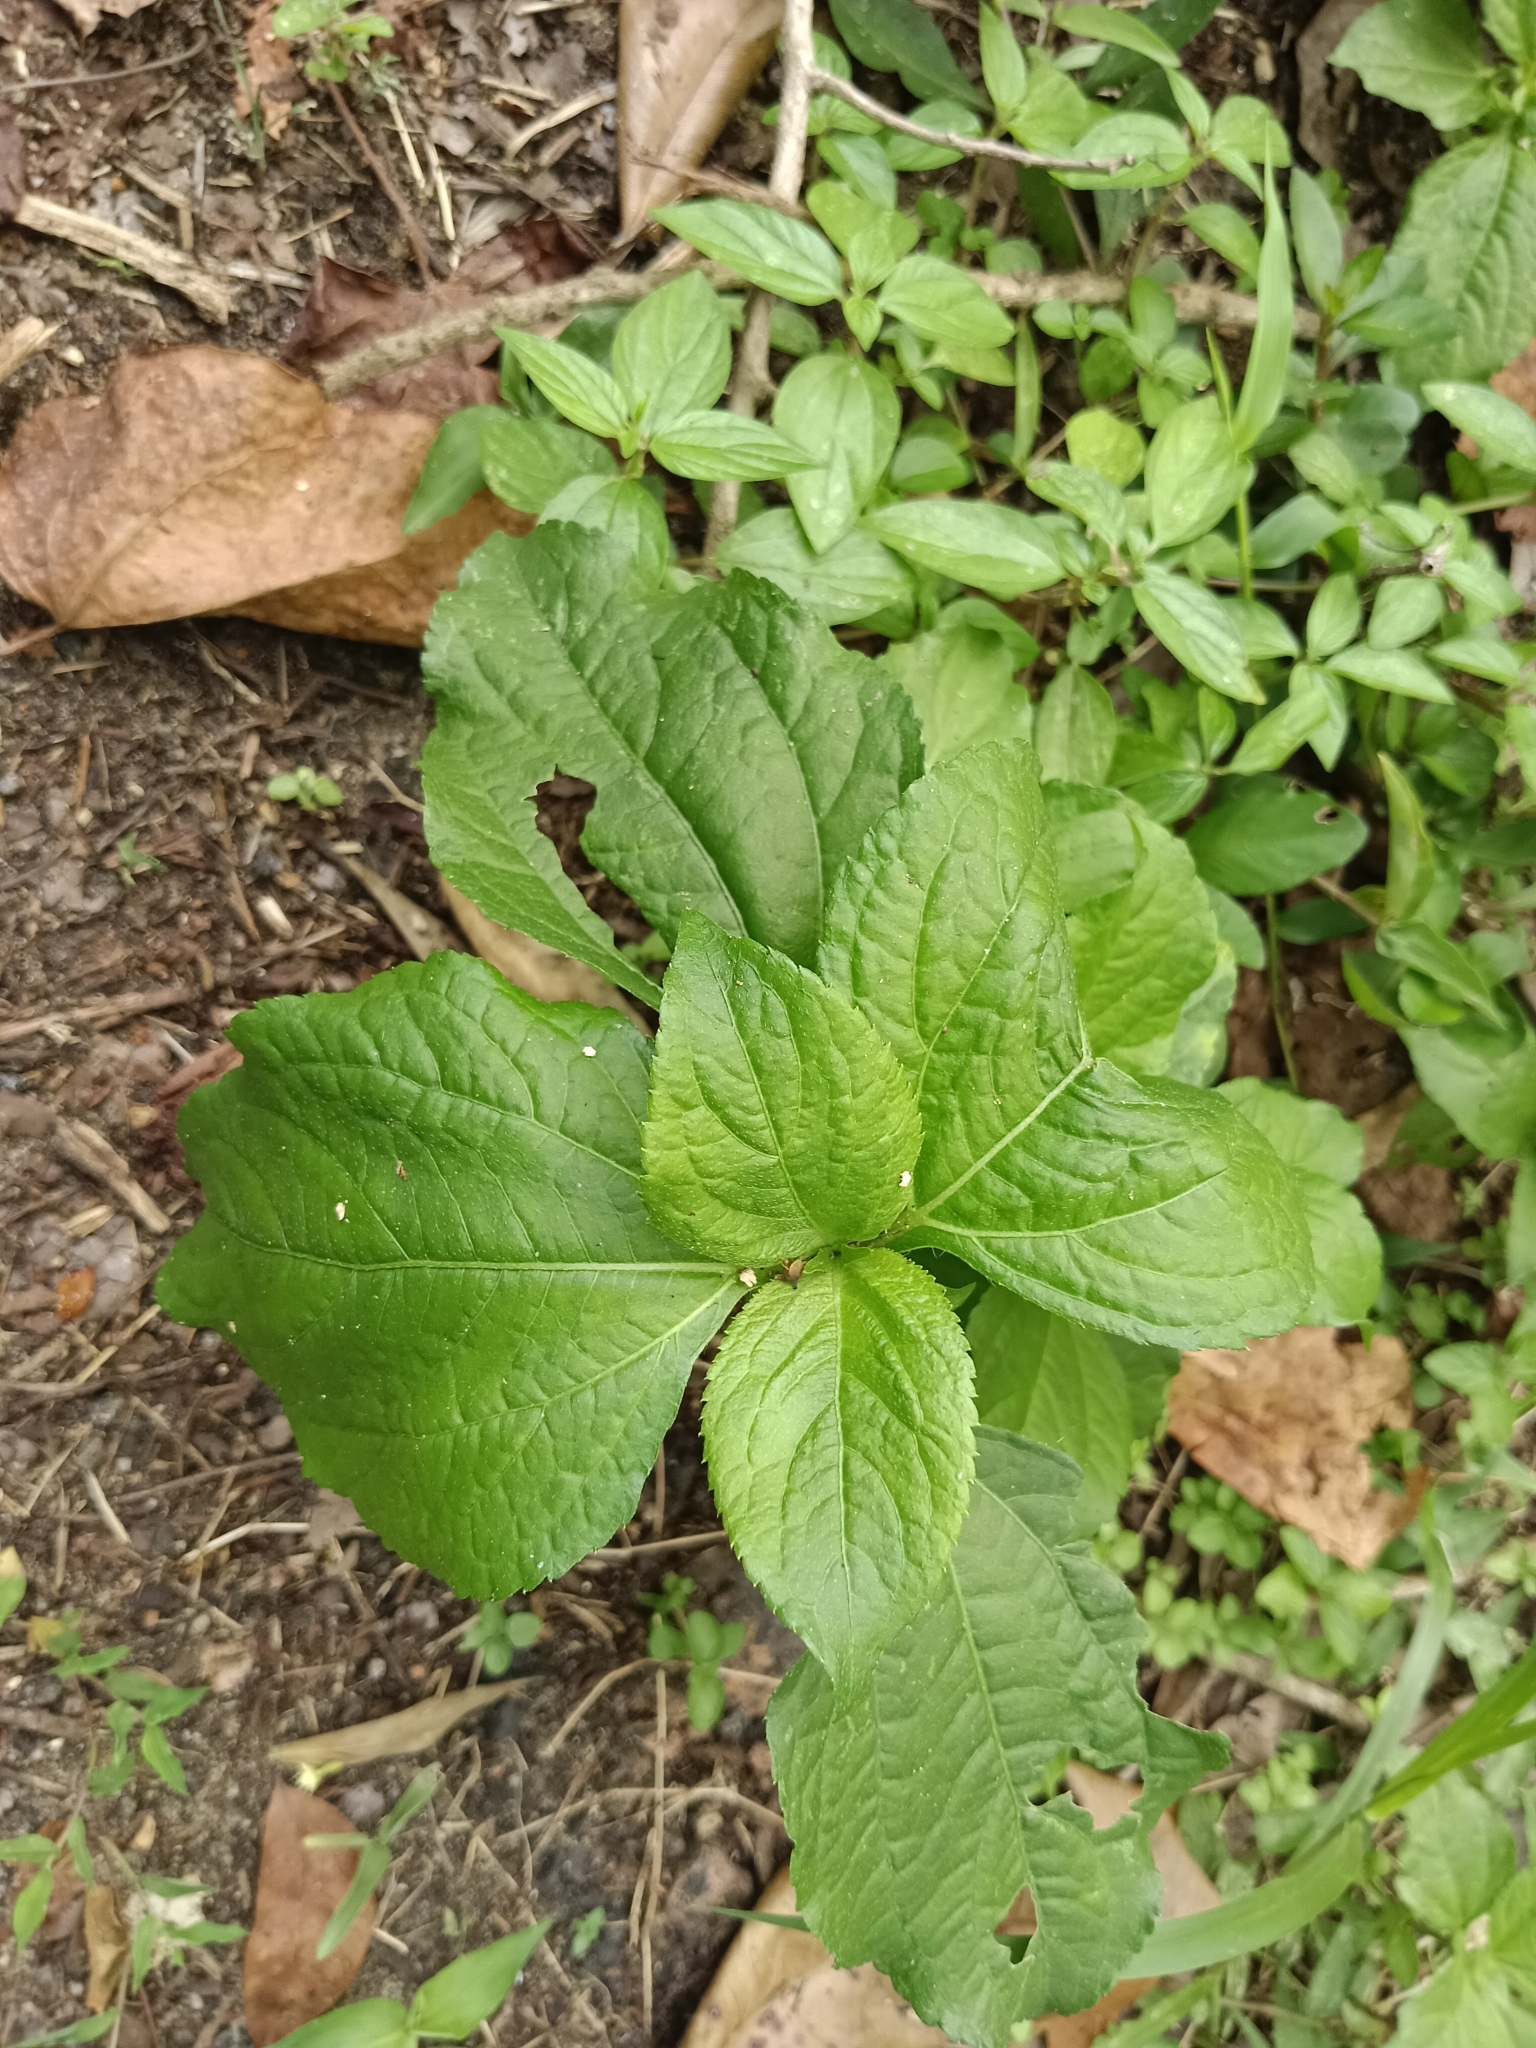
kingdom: Plantae
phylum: Tracheophyta
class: Magnoliopsida
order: Asterales
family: Asteraceae
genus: Synedrella
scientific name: Synedrella nodiflora
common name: Nodeweed
